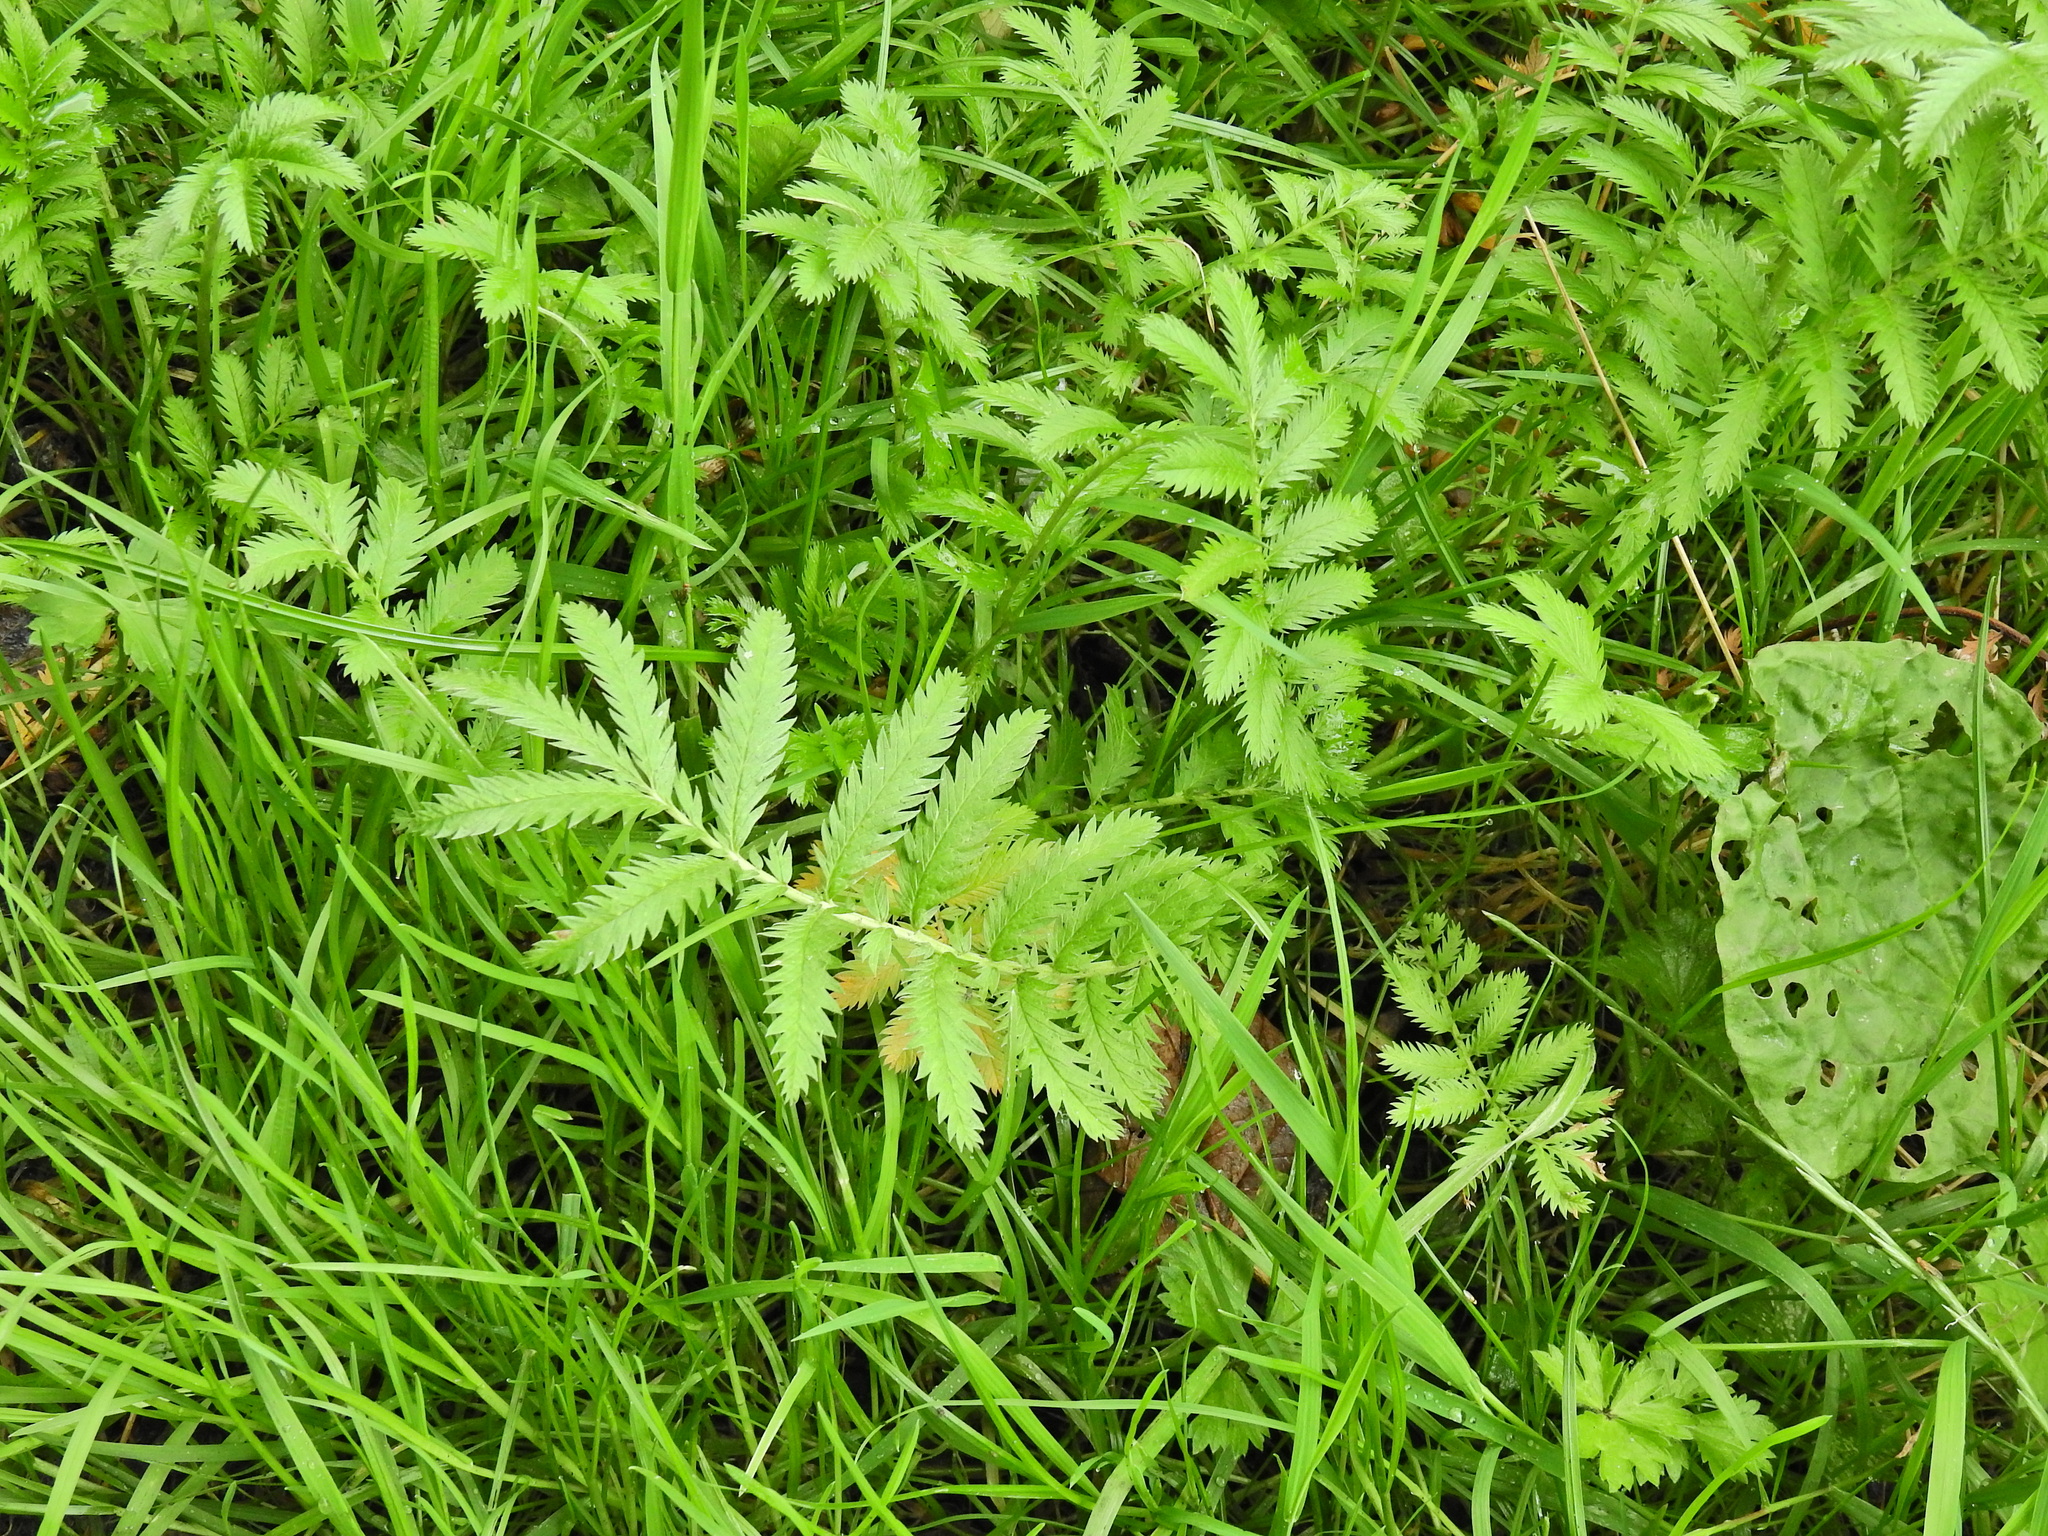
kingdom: Plantae
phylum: Tracheophyta
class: Magnoliopsida
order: Rosales
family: Rosaceae
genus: Argentina
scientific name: Argentina anserina
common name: Common silverweed
